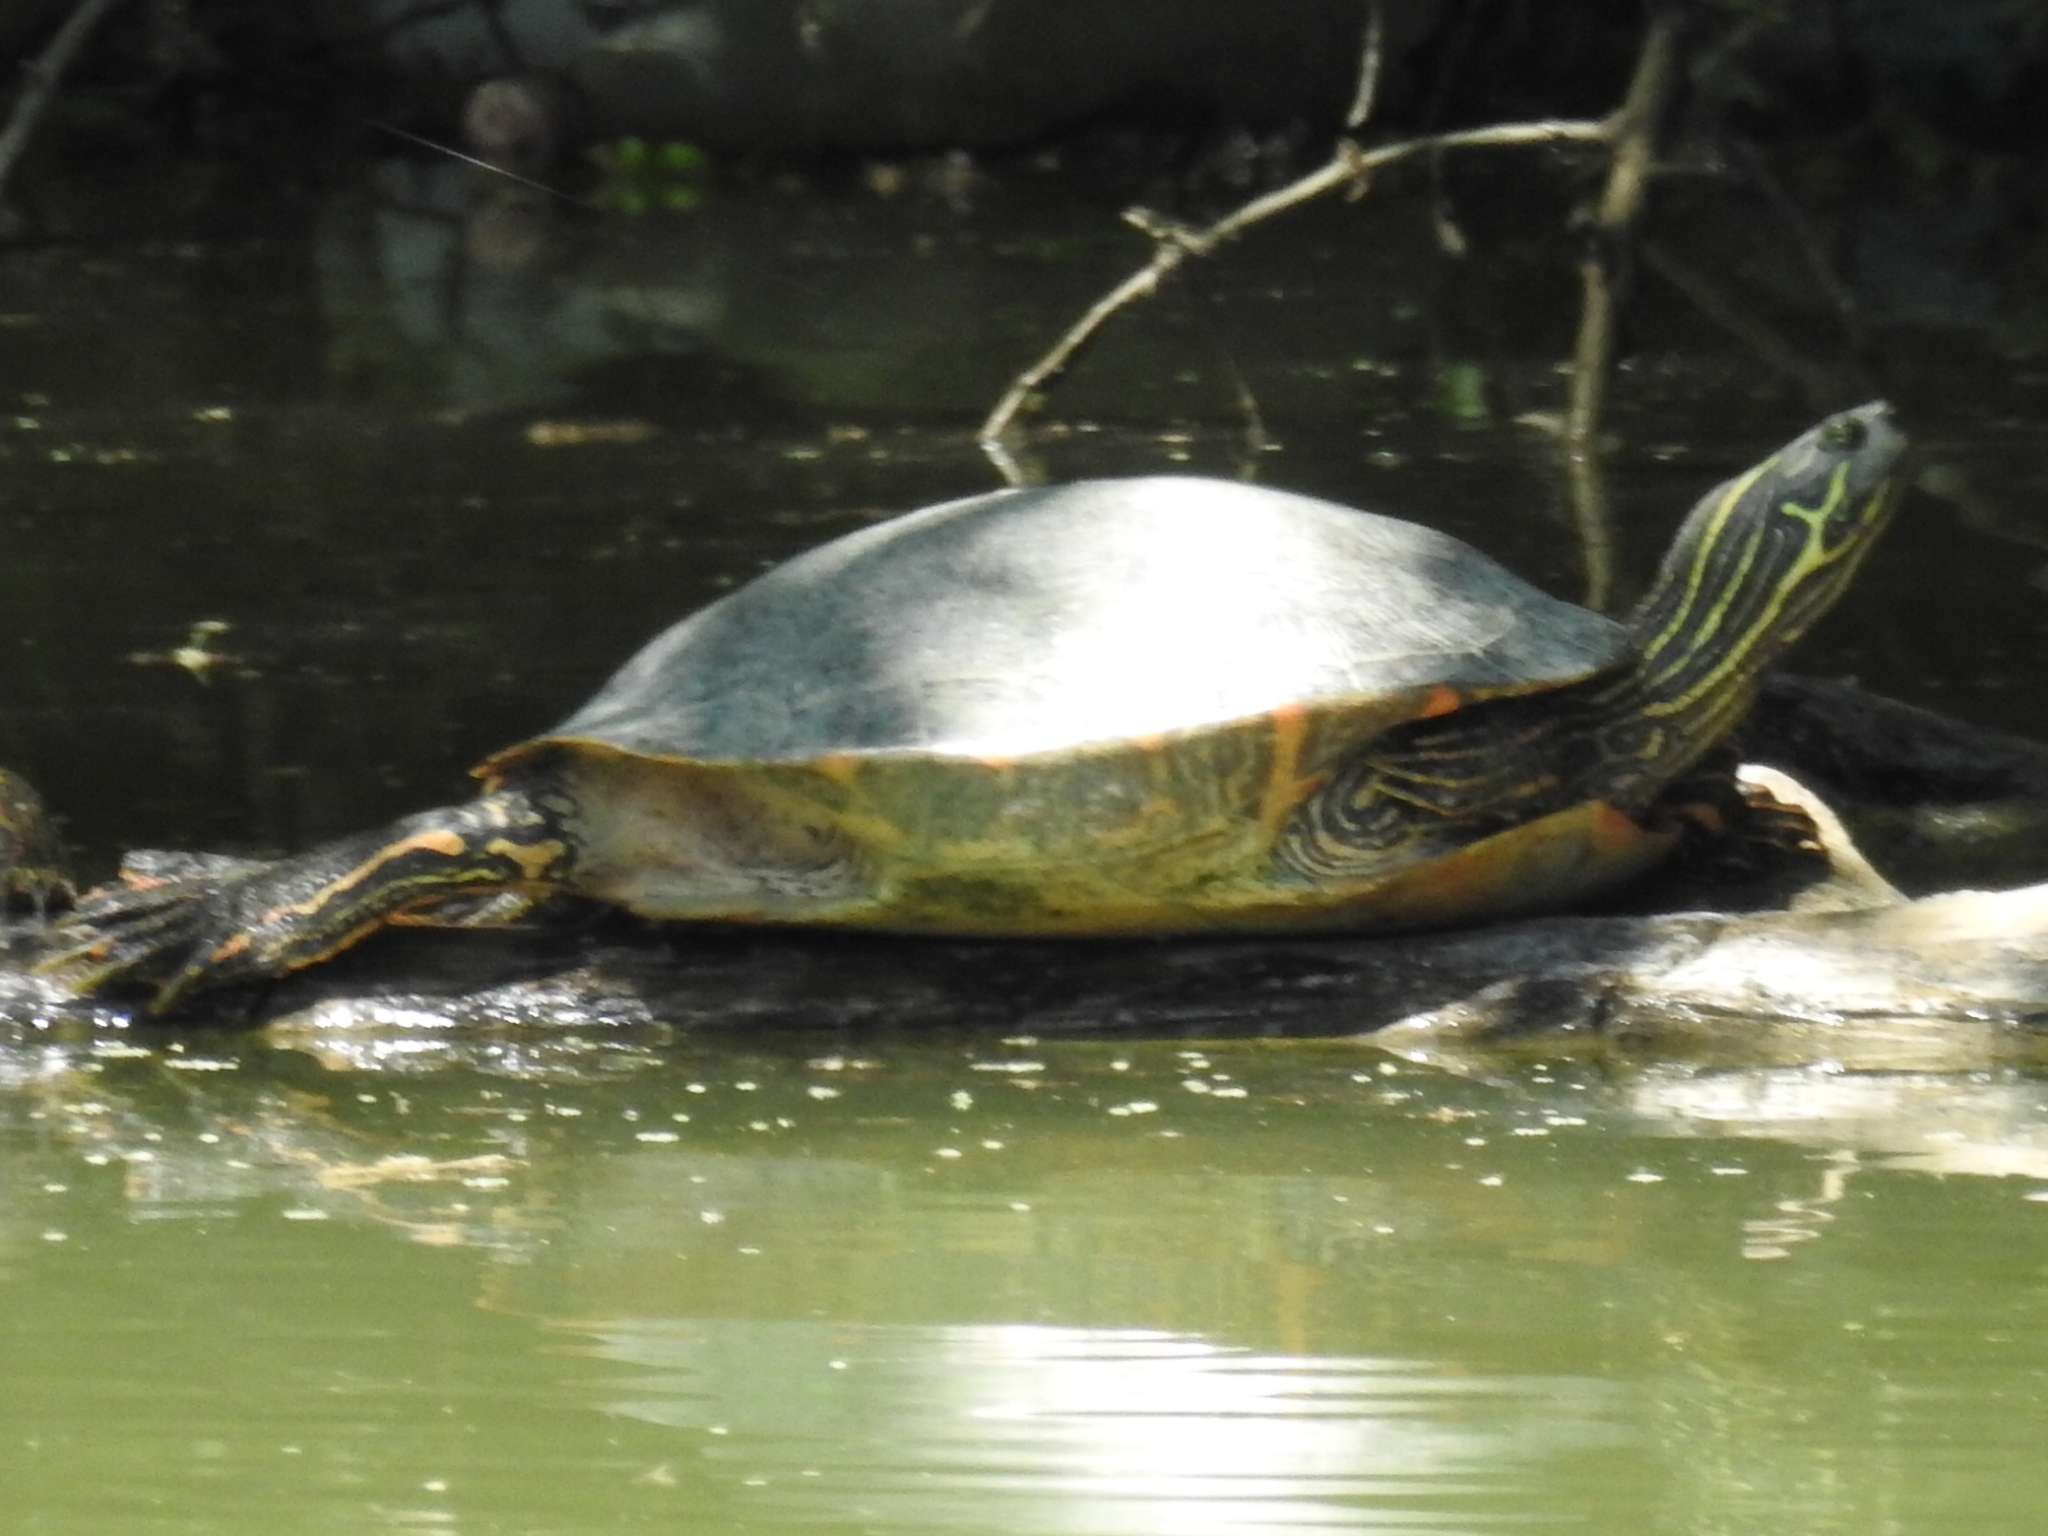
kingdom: Animalia
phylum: Chordata
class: Testudines
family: Emydidae
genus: Pseudemys
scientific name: Pseudemys texana
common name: Texas river cooter
